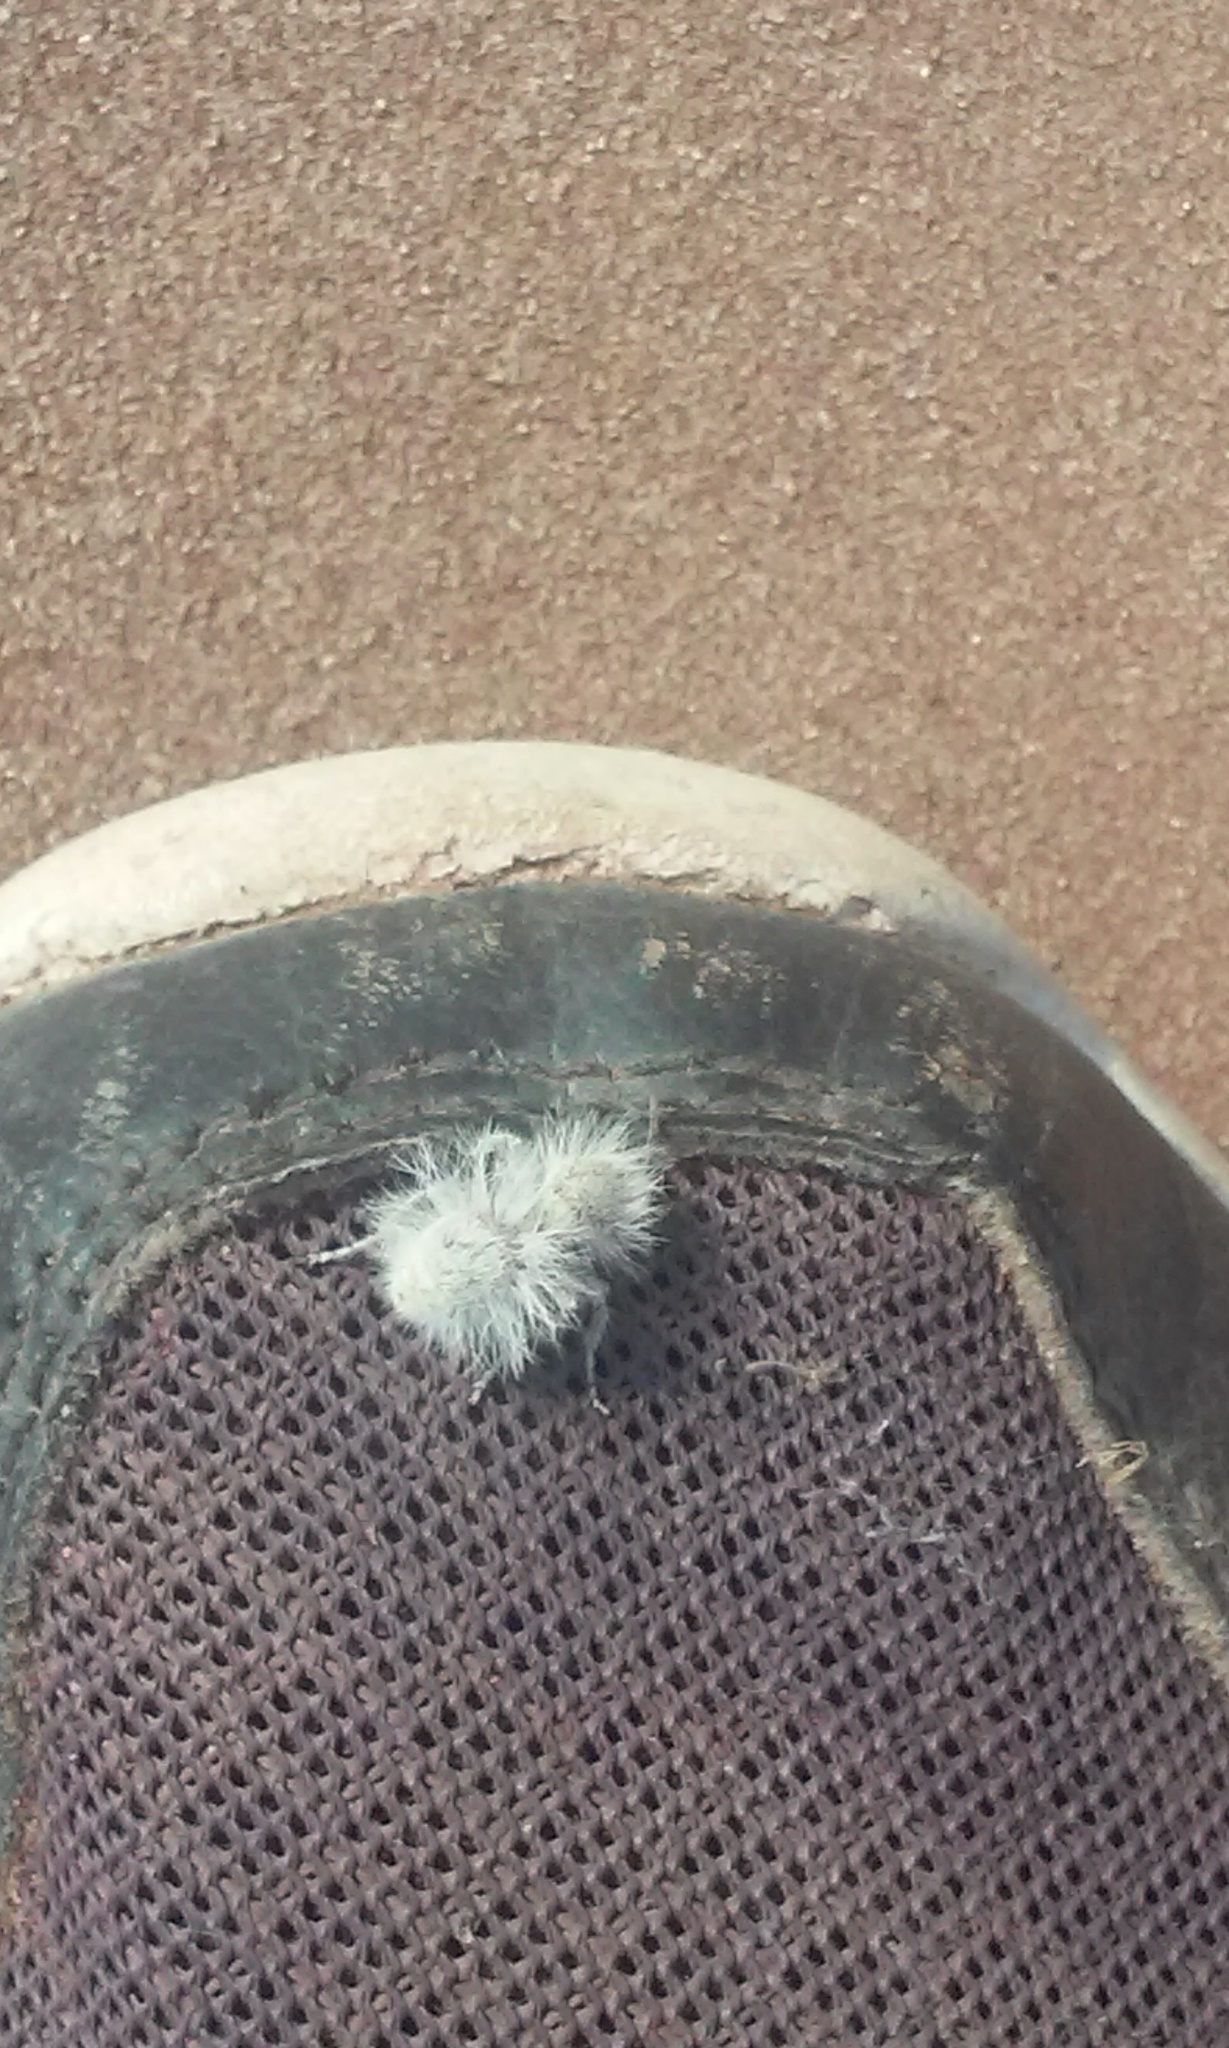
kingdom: Animalia
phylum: Arthropoda
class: Insecta
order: Hymenoptera
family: Mutillidae
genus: Dasymutilla
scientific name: Dasymutilla gloriosa
